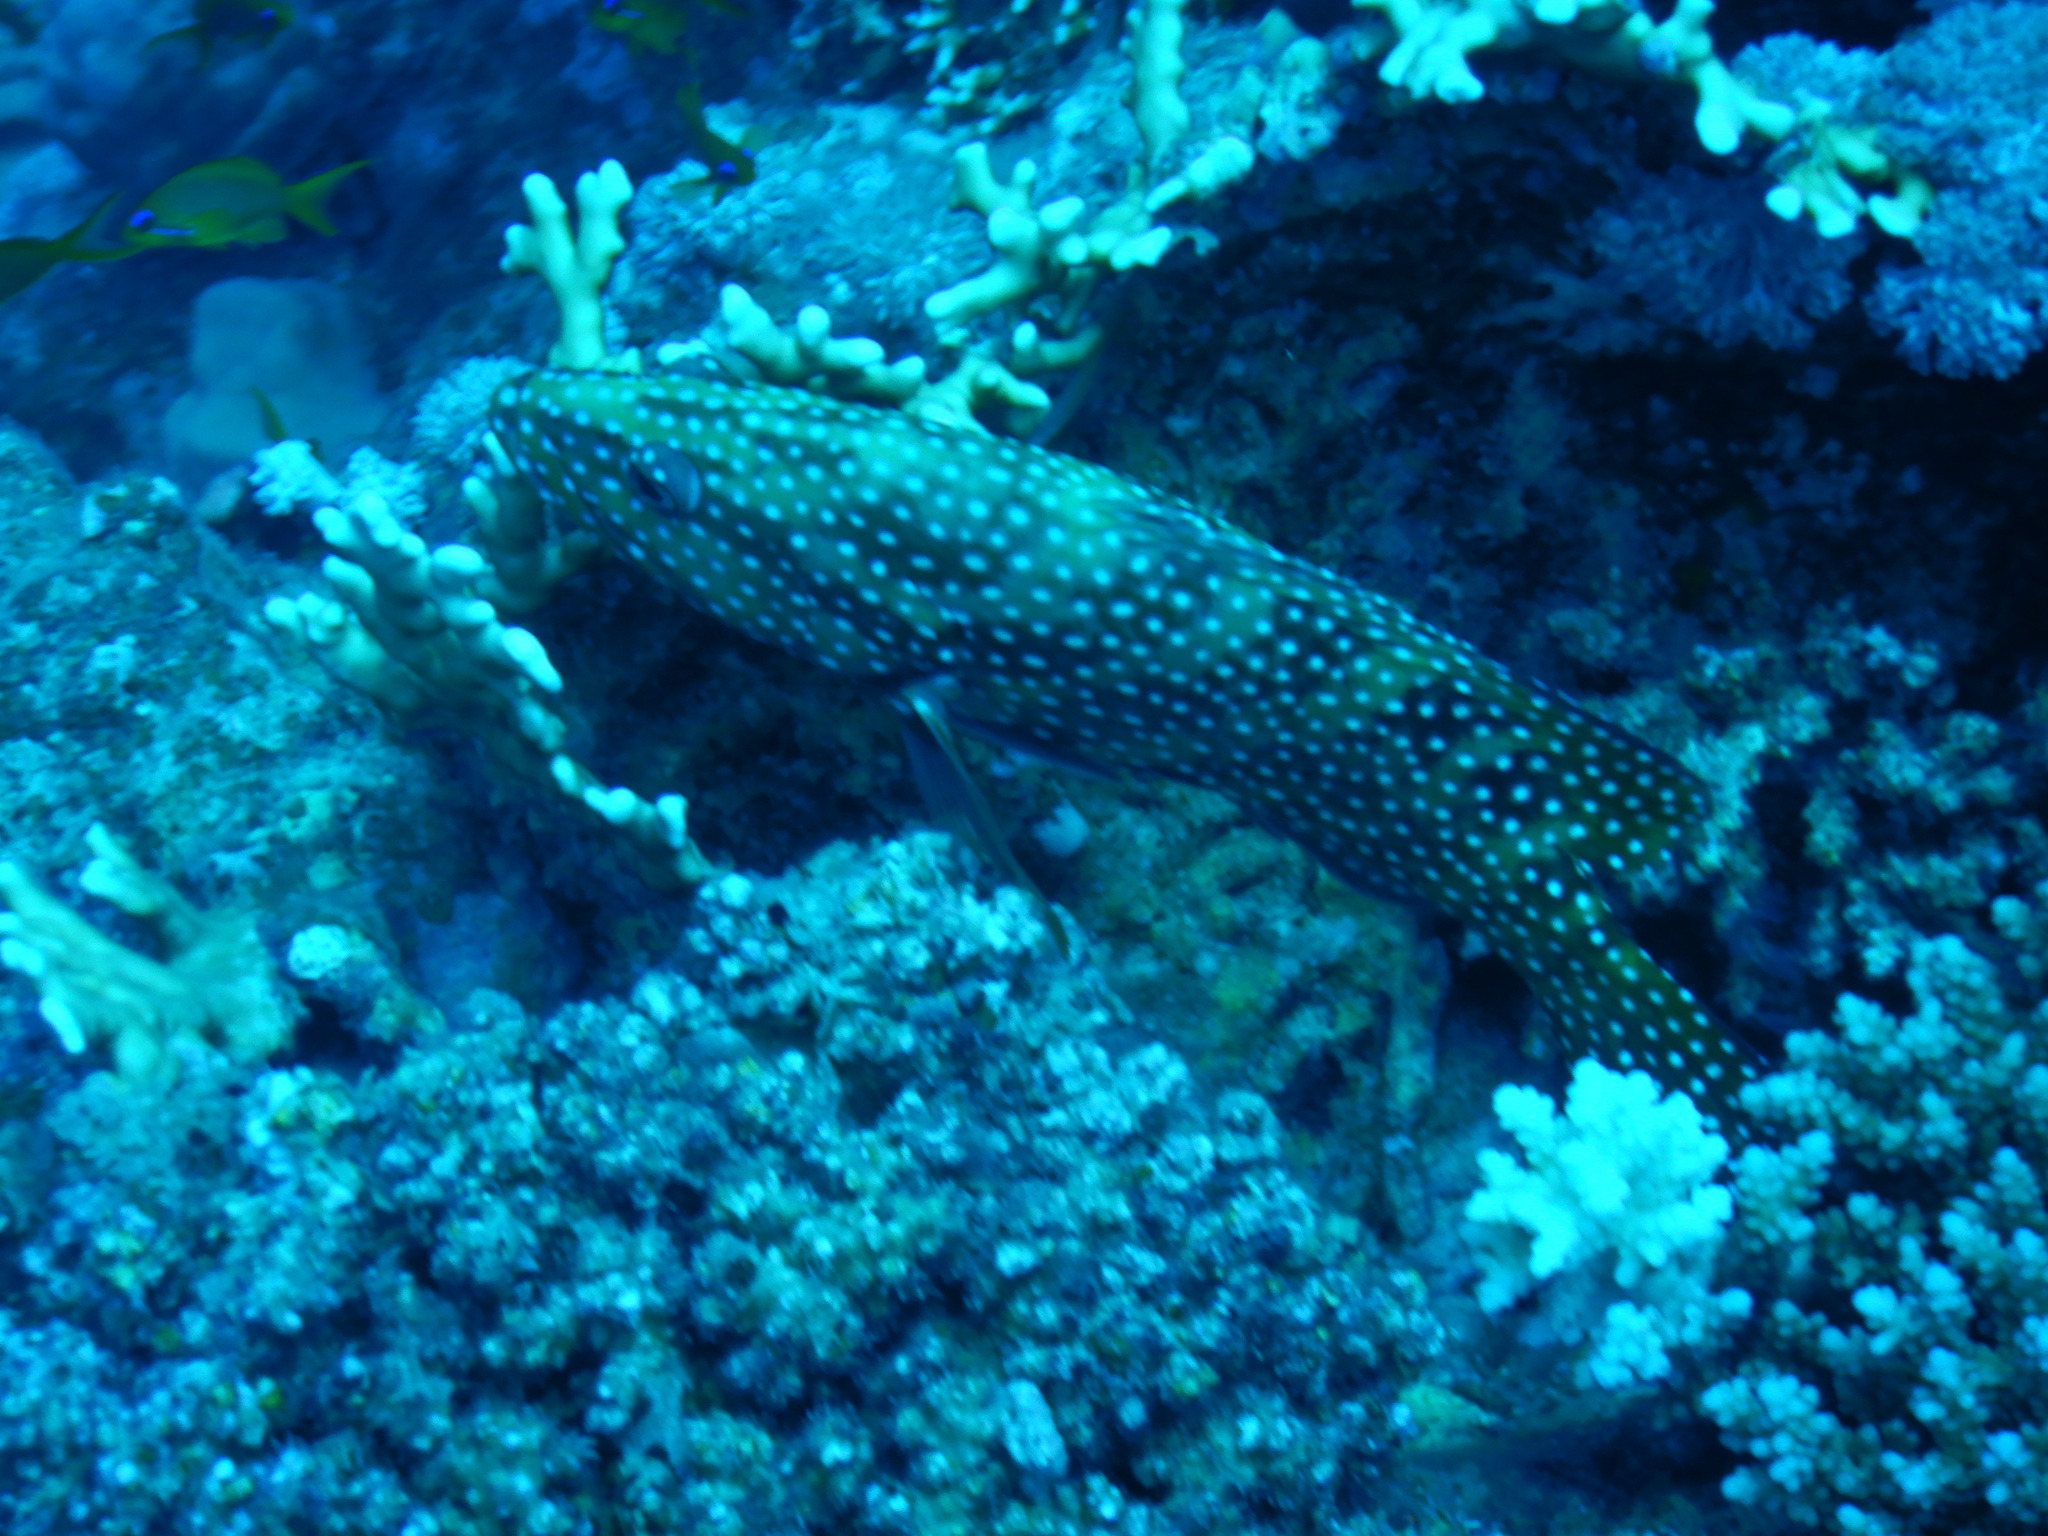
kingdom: Animalia
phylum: Chordata
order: Perciformes
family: Serranidae
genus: Cephalopholis
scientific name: Cephalopholis miniata
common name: Coral hind
